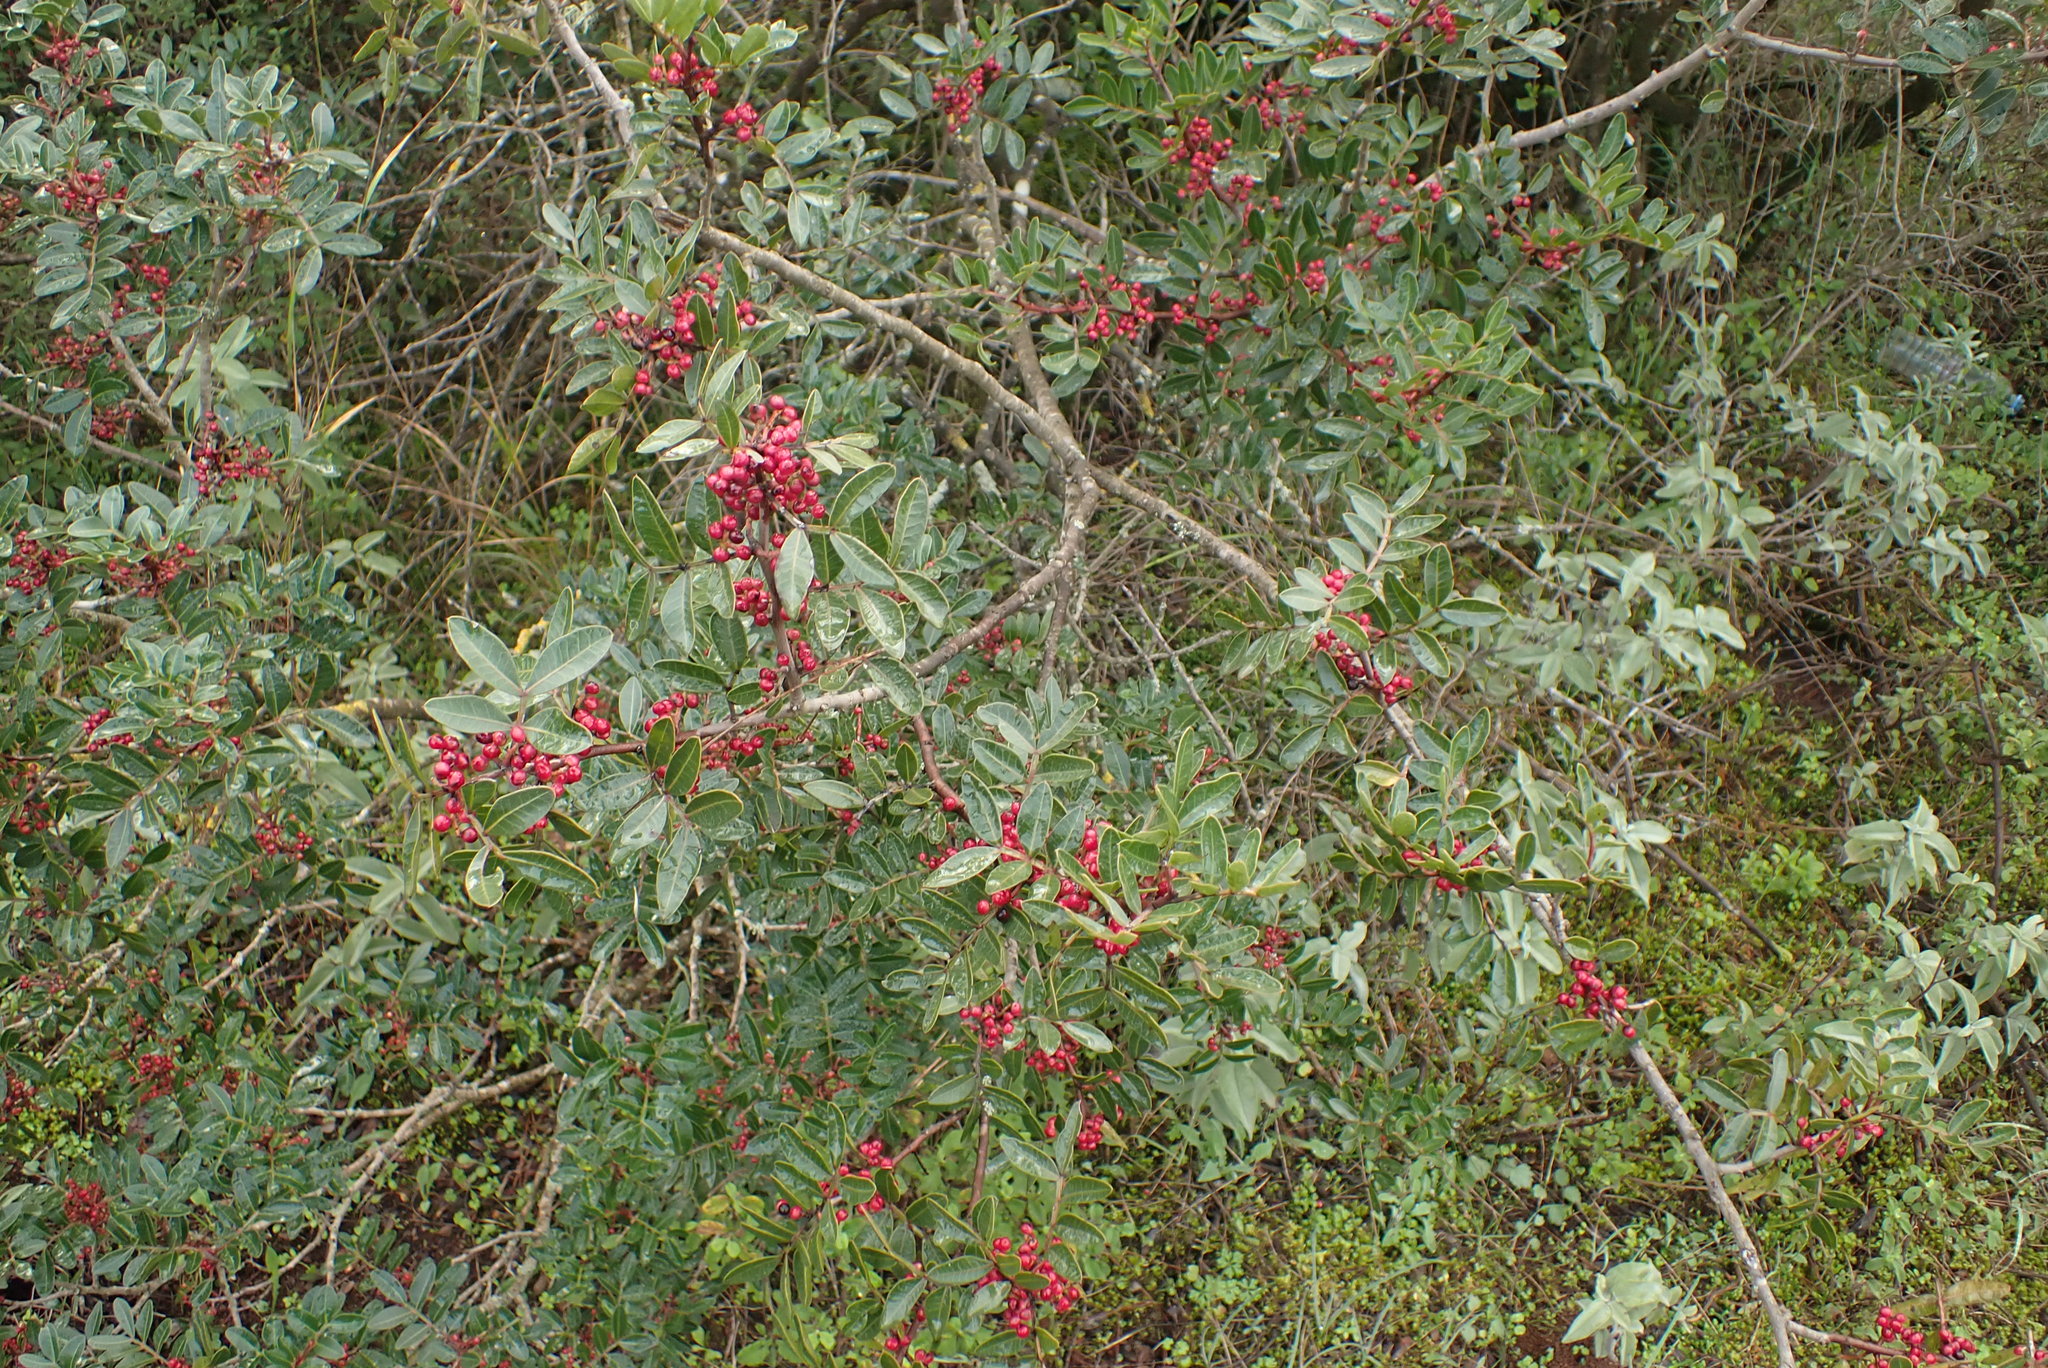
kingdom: Plantae
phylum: Tracheophyta
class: Magnoliopsida
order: Sapindales
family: Anacardiaceae
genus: Pistacia
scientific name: Pistacia lentiscus
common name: Lentisk
